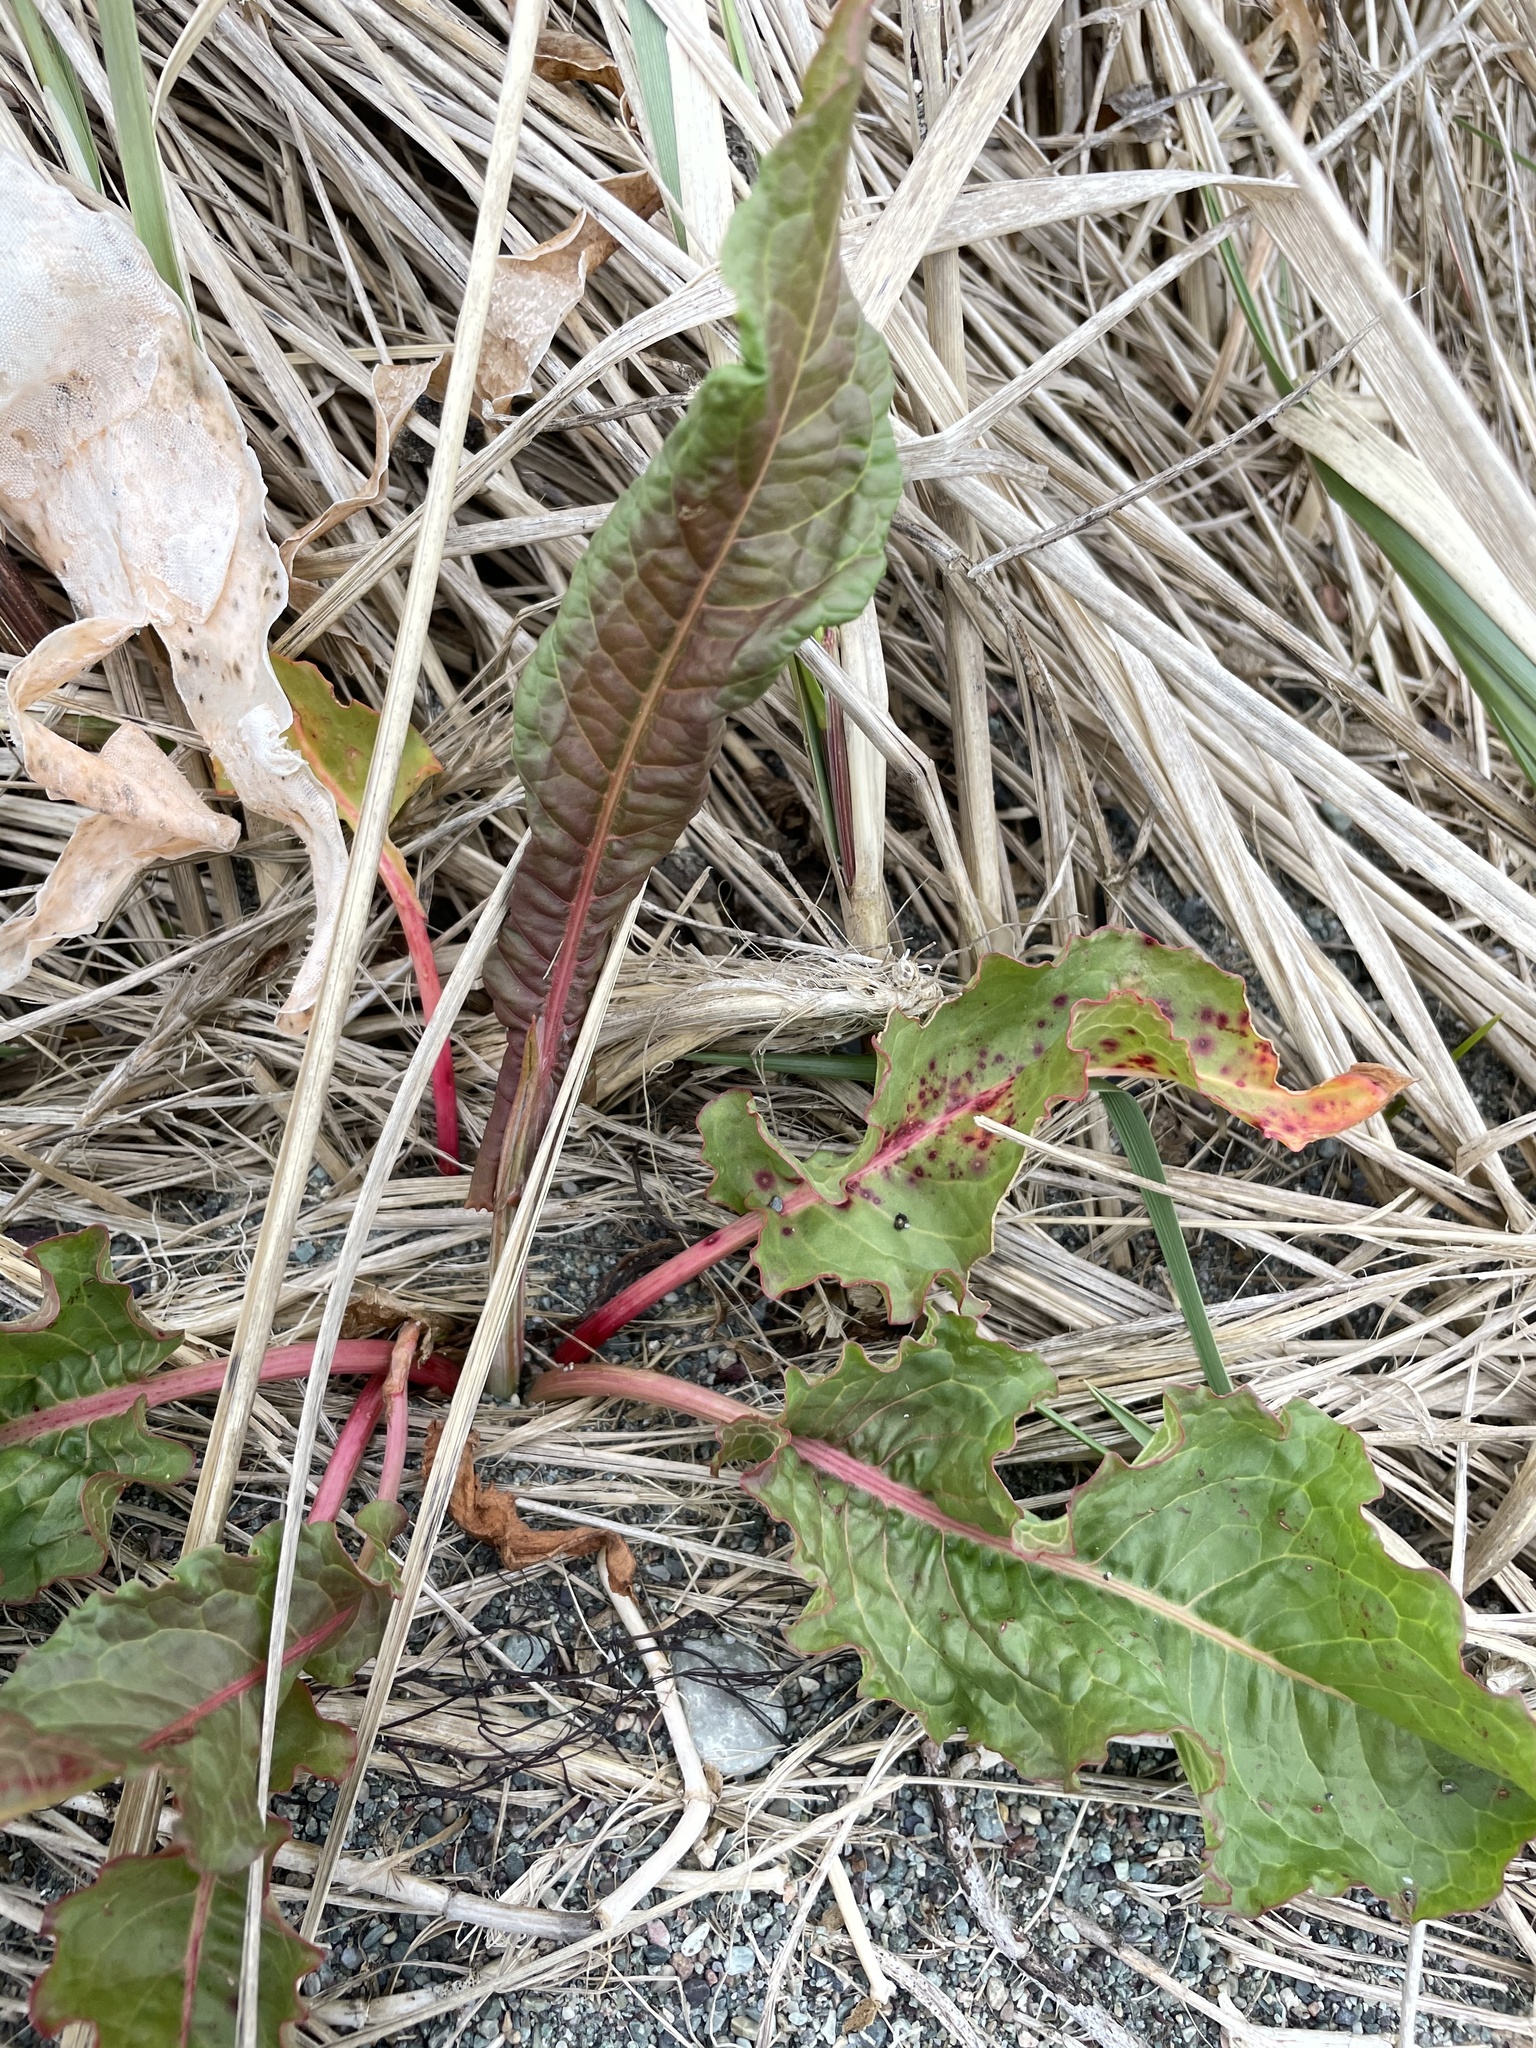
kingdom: Plantae
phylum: Tracheophyta
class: Magnoliopsida
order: Caryophyllales
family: Polygonaceae
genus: Rumex
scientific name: Rumex crispus
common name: Curled dock
